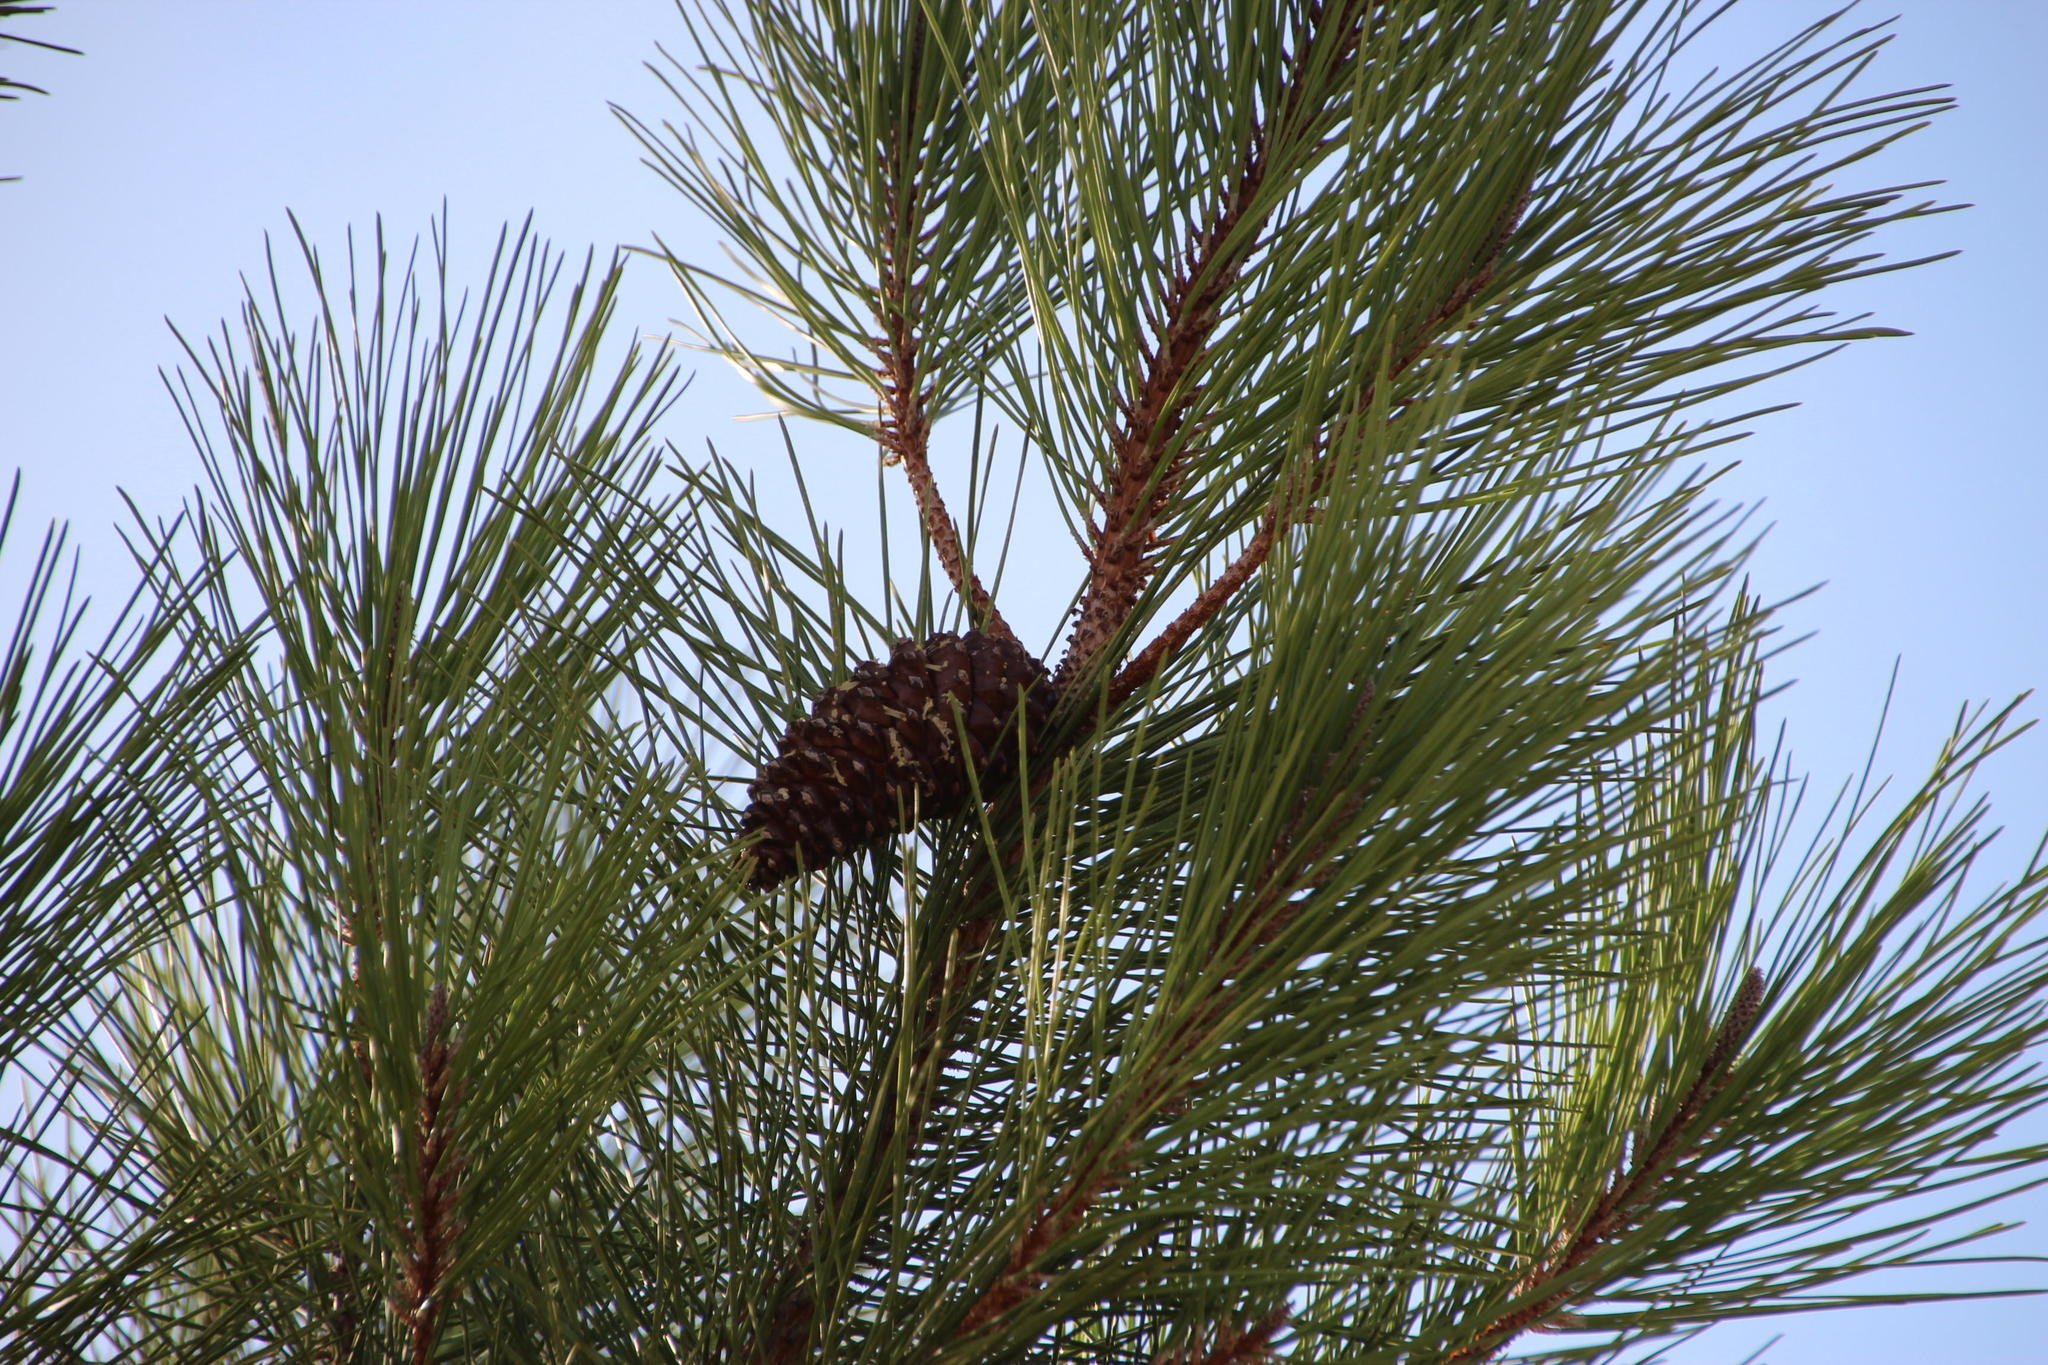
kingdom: Plantae
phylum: Tracheophyta
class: Pinopsida
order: Pinales
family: Pinaceae
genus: Pinus
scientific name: Pinus pinaster
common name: Maritime pine
